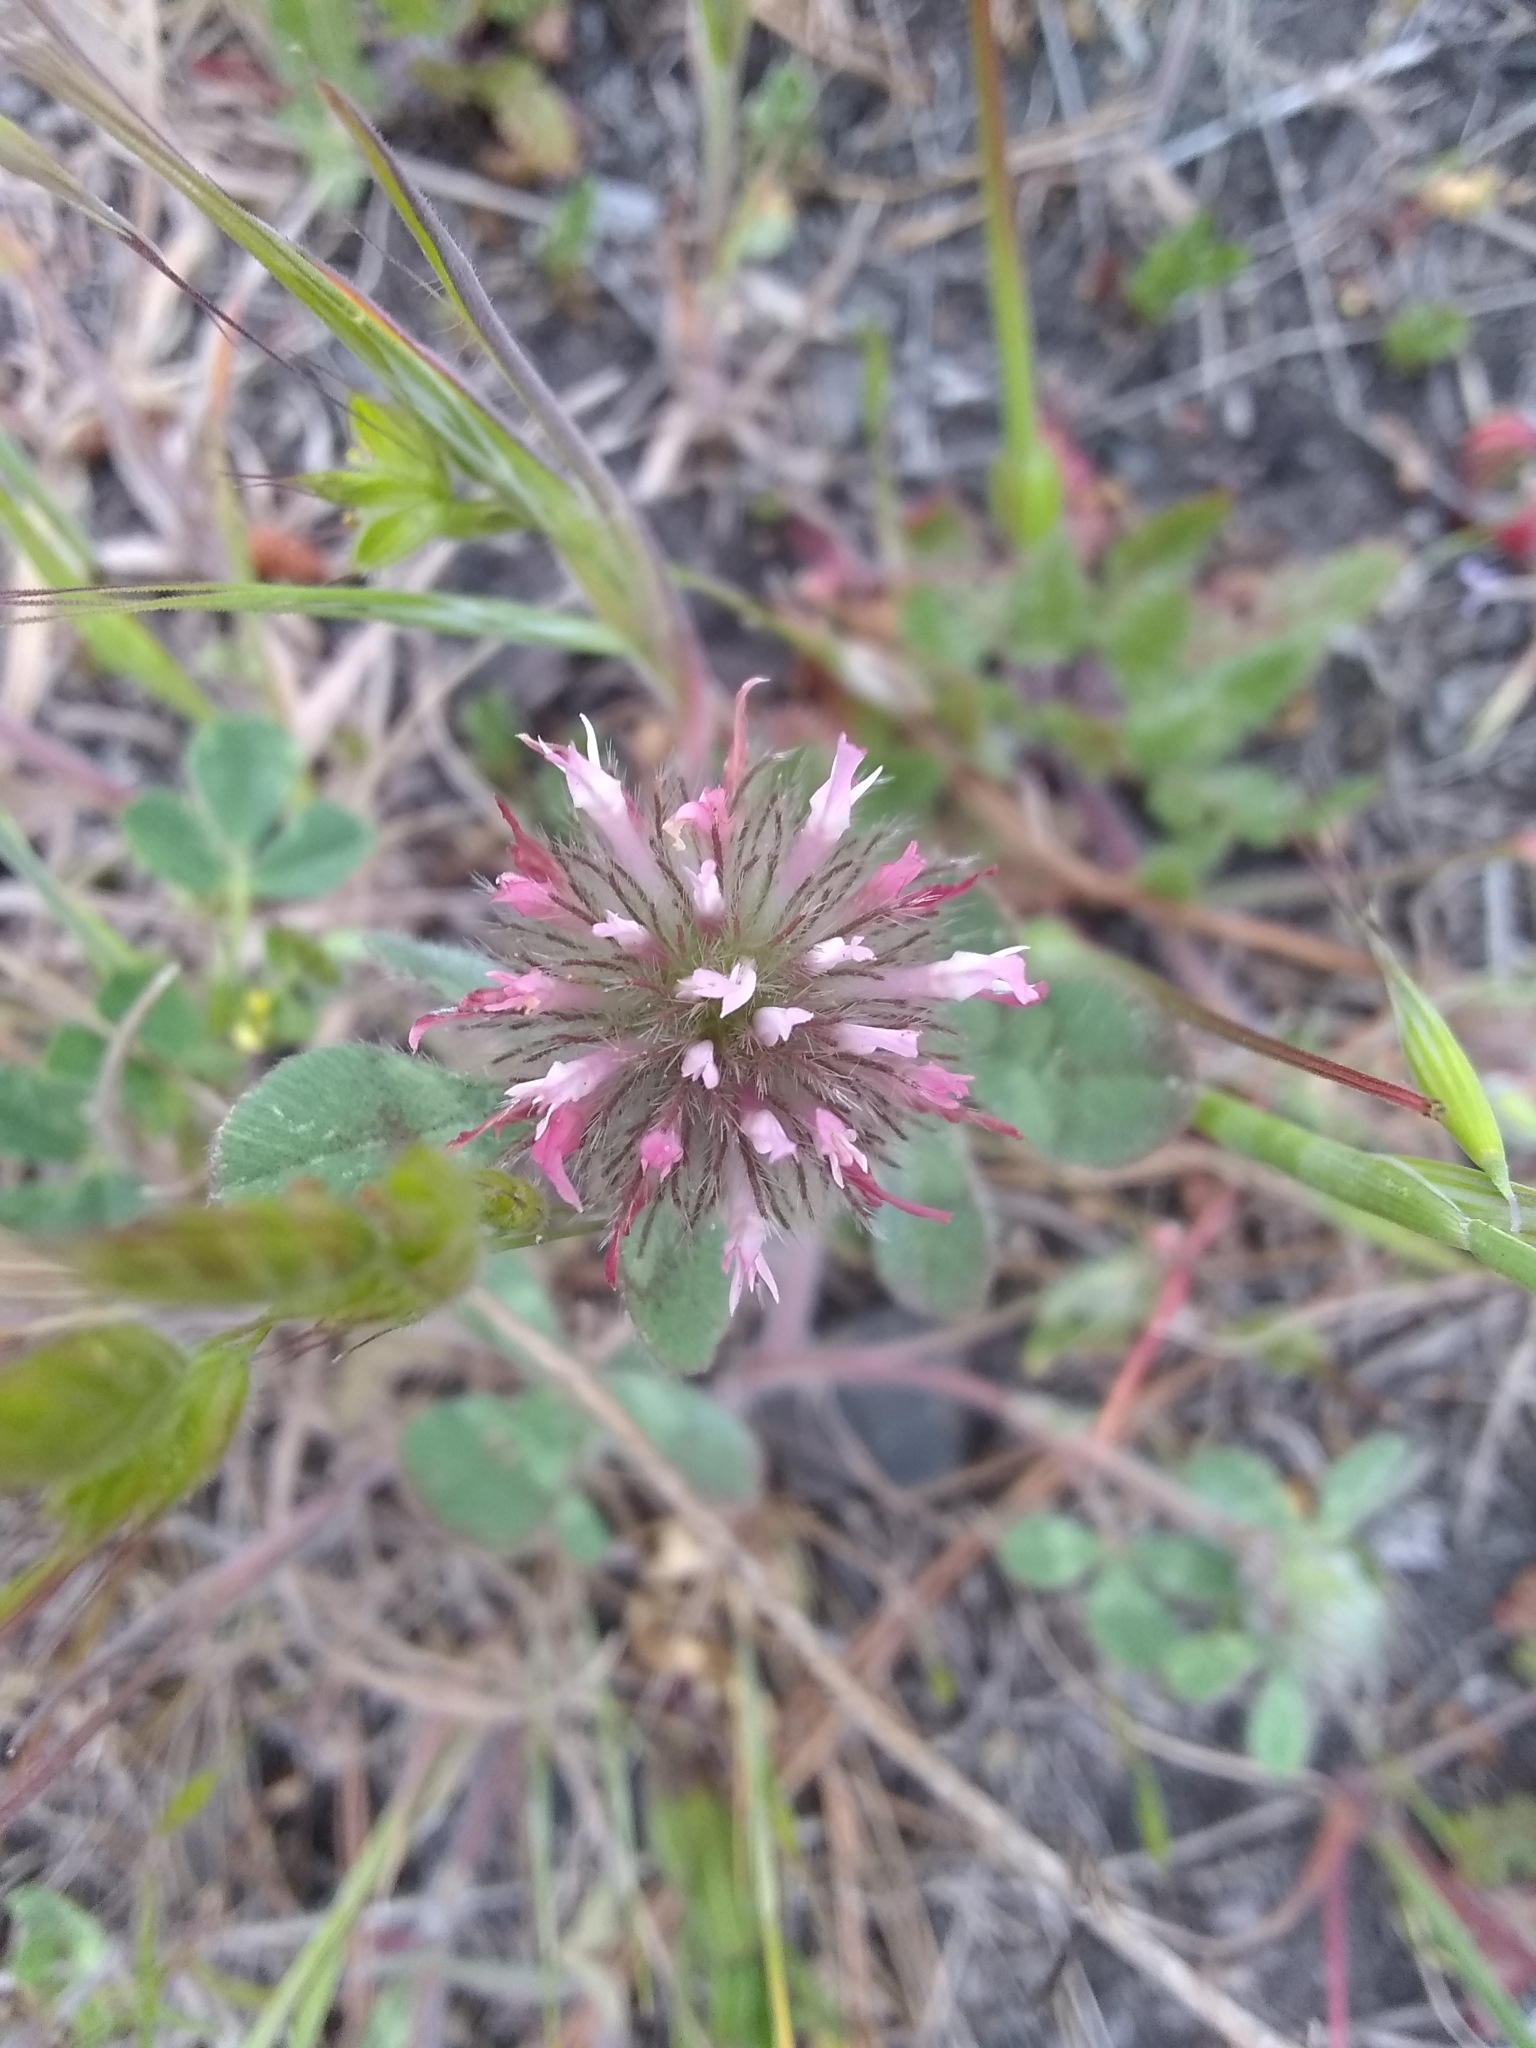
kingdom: Plantae
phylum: Tracheophyta
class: Magnoliopsida
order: Fabales
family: Fabaceae
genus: Trifolium
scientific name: Trifolium hirtum
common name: Rose clover
